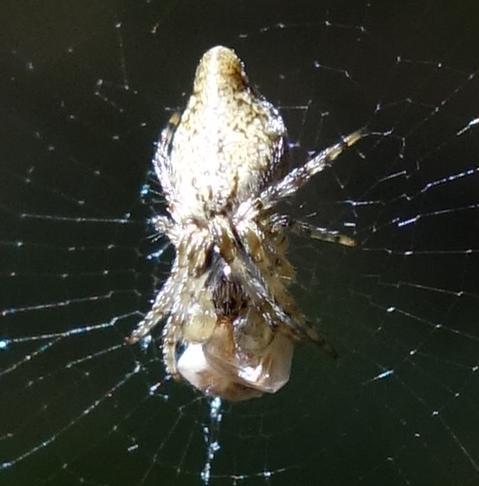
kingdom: Animalia
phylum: Arthropoda
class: Arachnida
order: Araneae
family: Araneidae
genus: Cyclosa
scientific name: Cyclosa conica
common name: Conical trashline orbweaver
